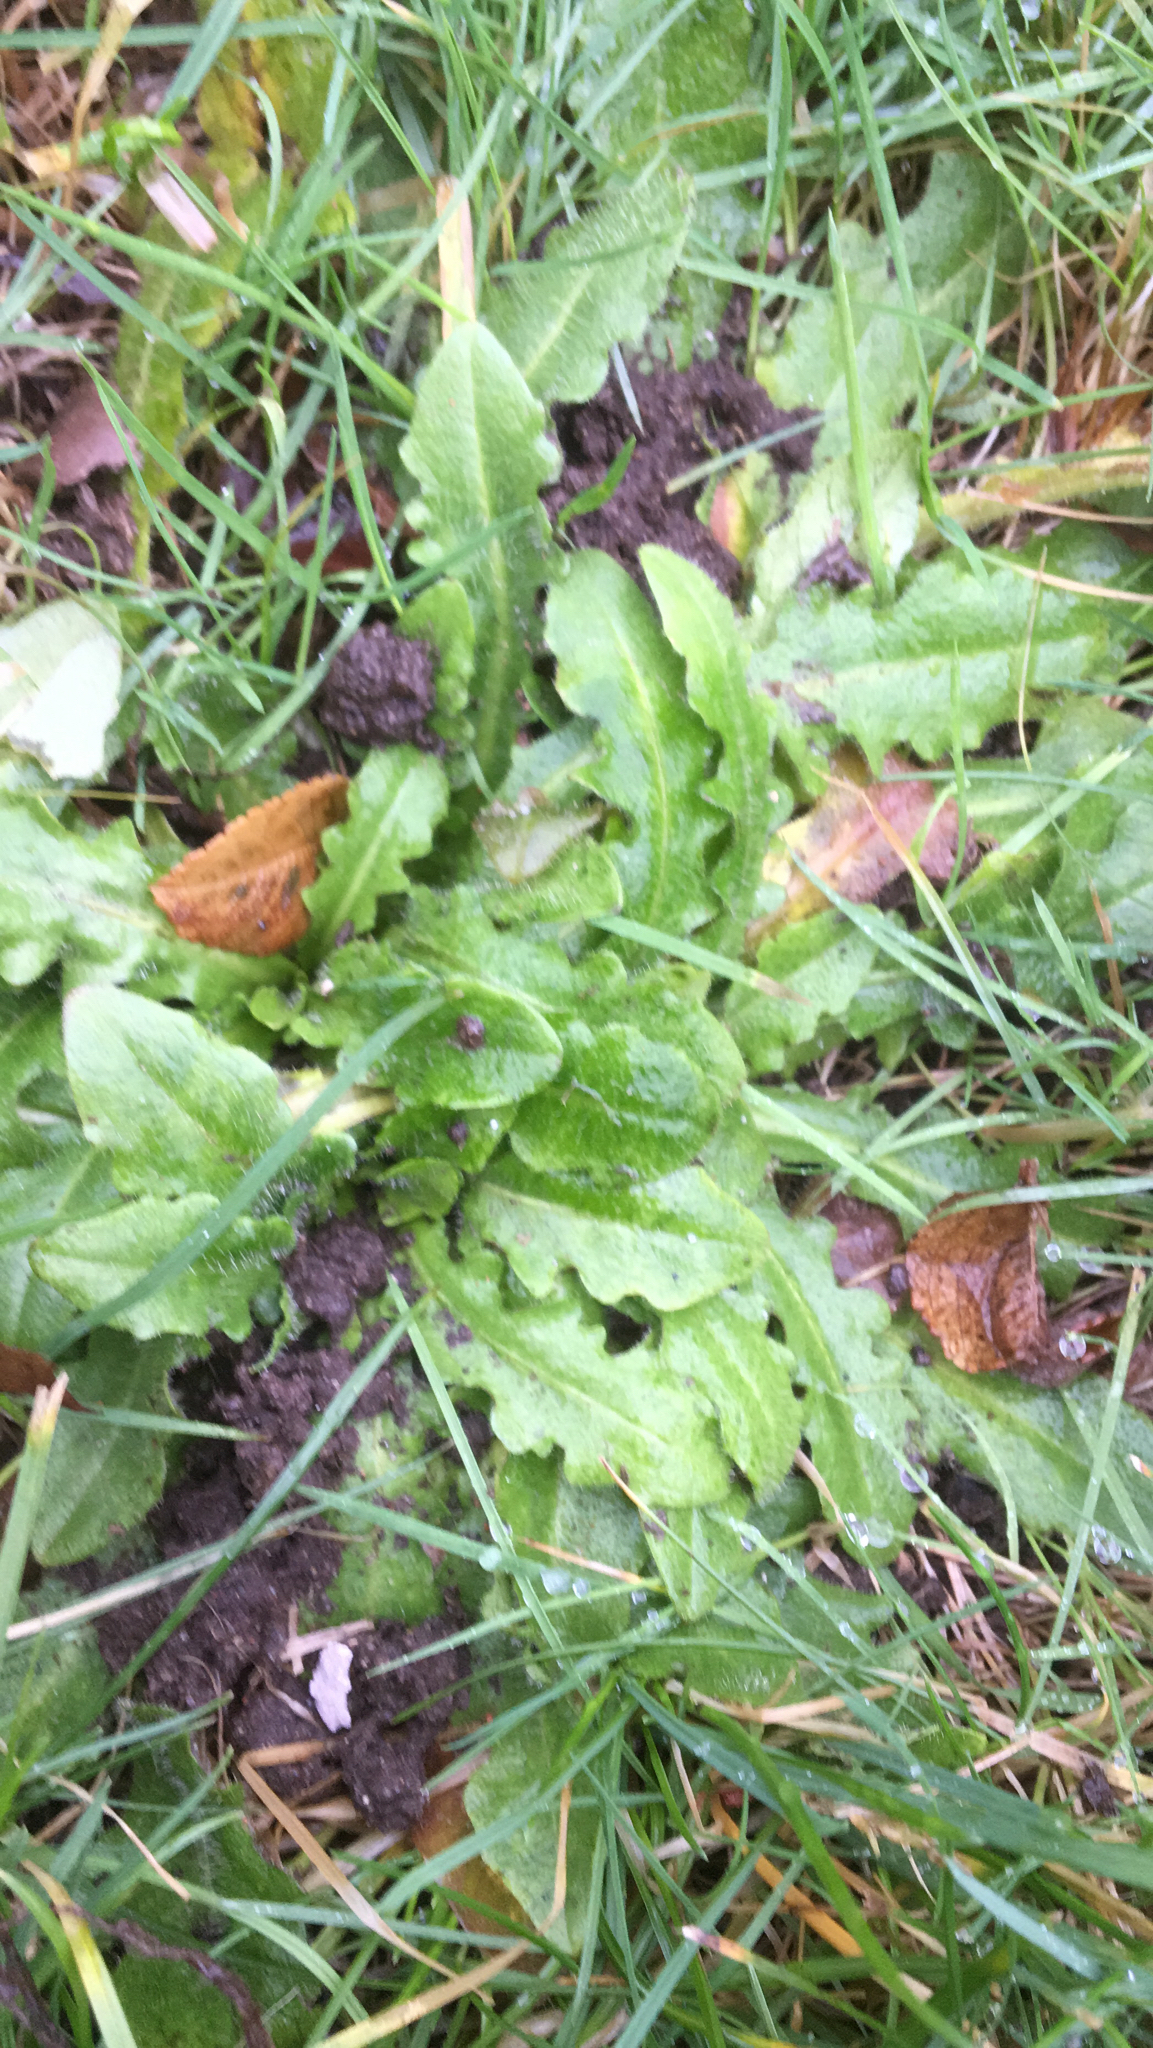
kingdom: Plantae
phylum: Tracheophyta
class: Magnoliopsida
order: Asterales
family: Asteraceae
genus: Hypochaeris
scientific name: Hypochaeris radicata
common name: Flatweed
